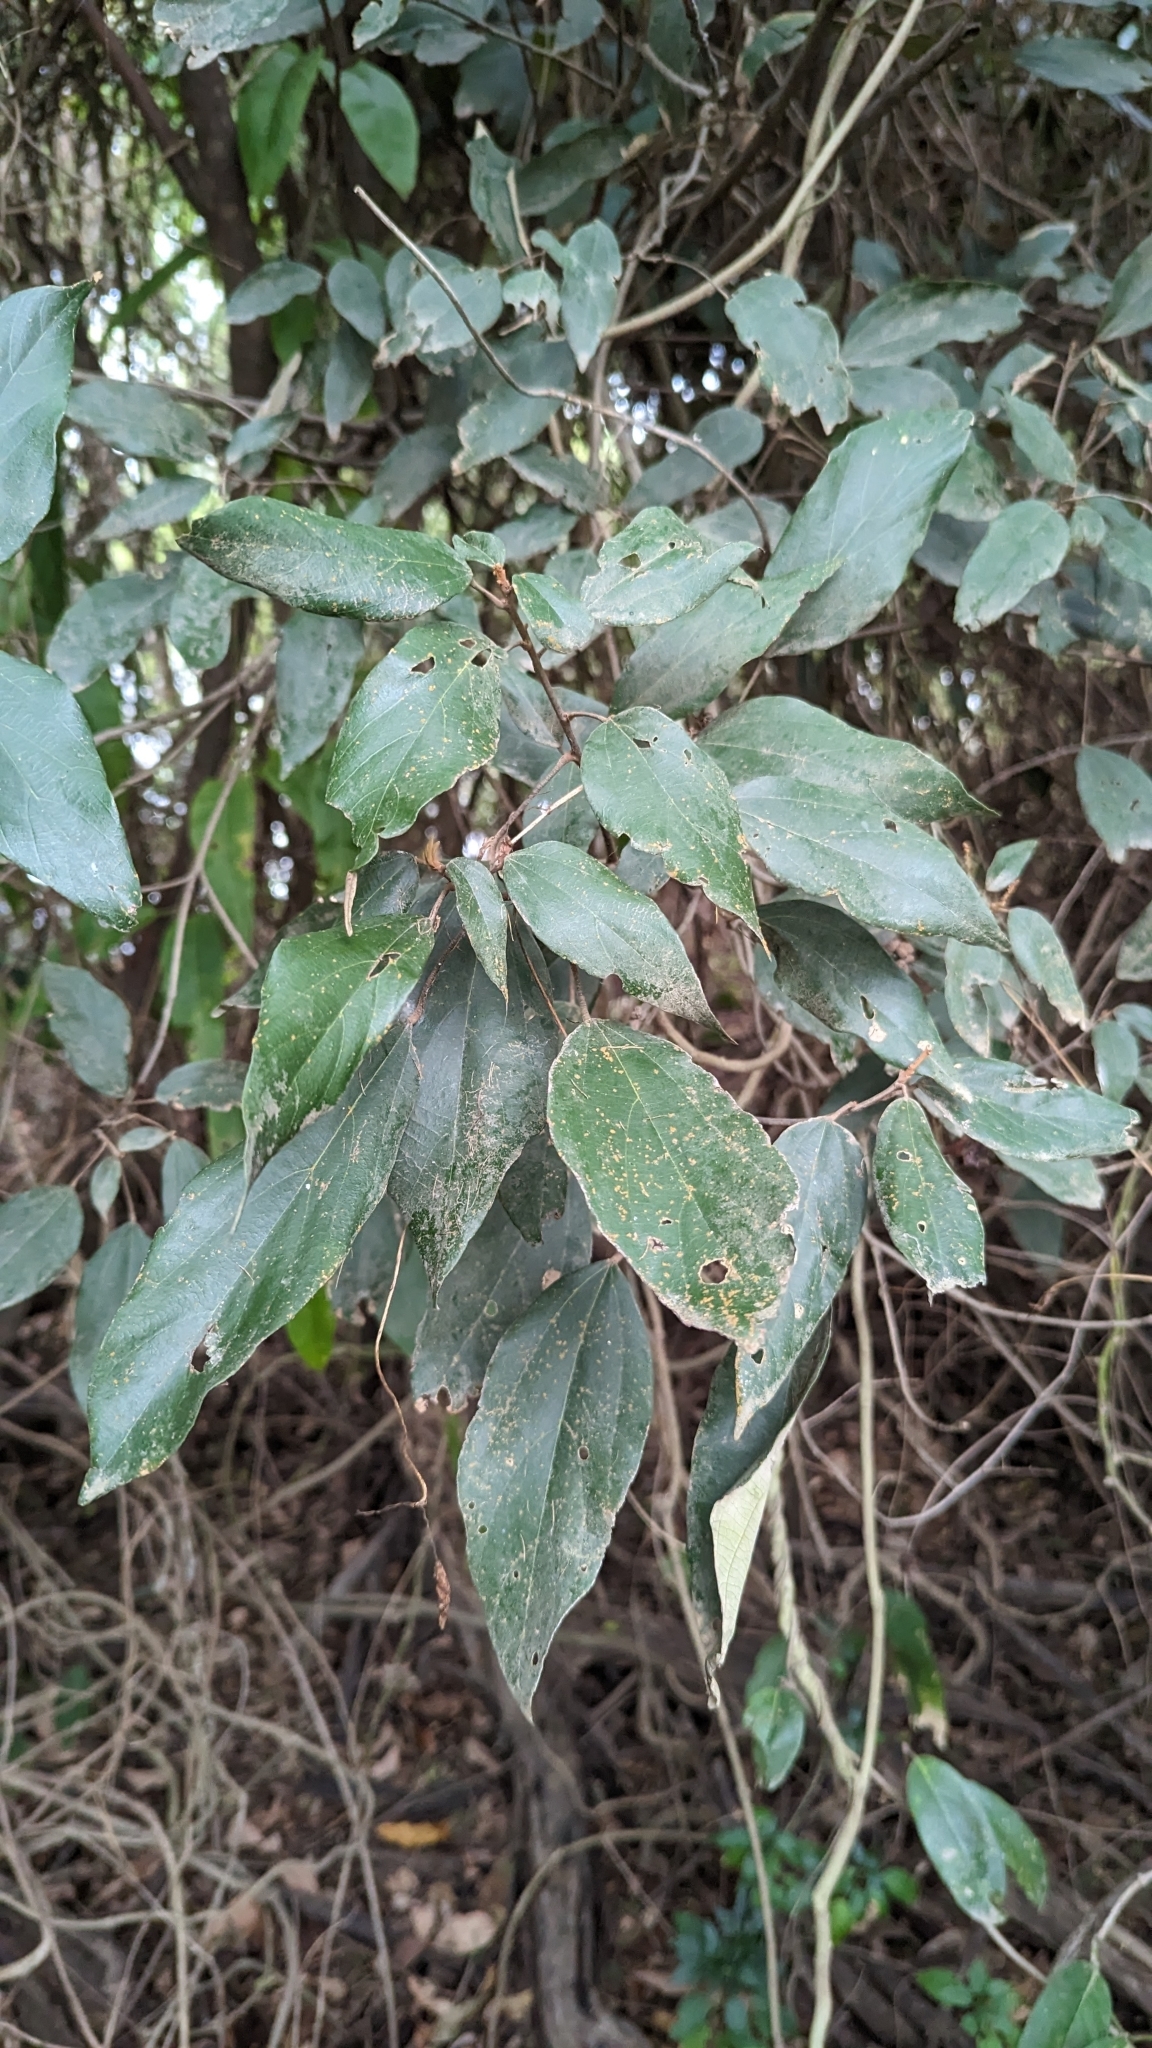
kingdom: Plantae
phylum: Tracheophyta
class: Magnoliopsida
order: Malpighiales
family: Euphorbiaceae
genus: Mallotus
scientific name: Mallotus philippensis
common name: Kamala tree
